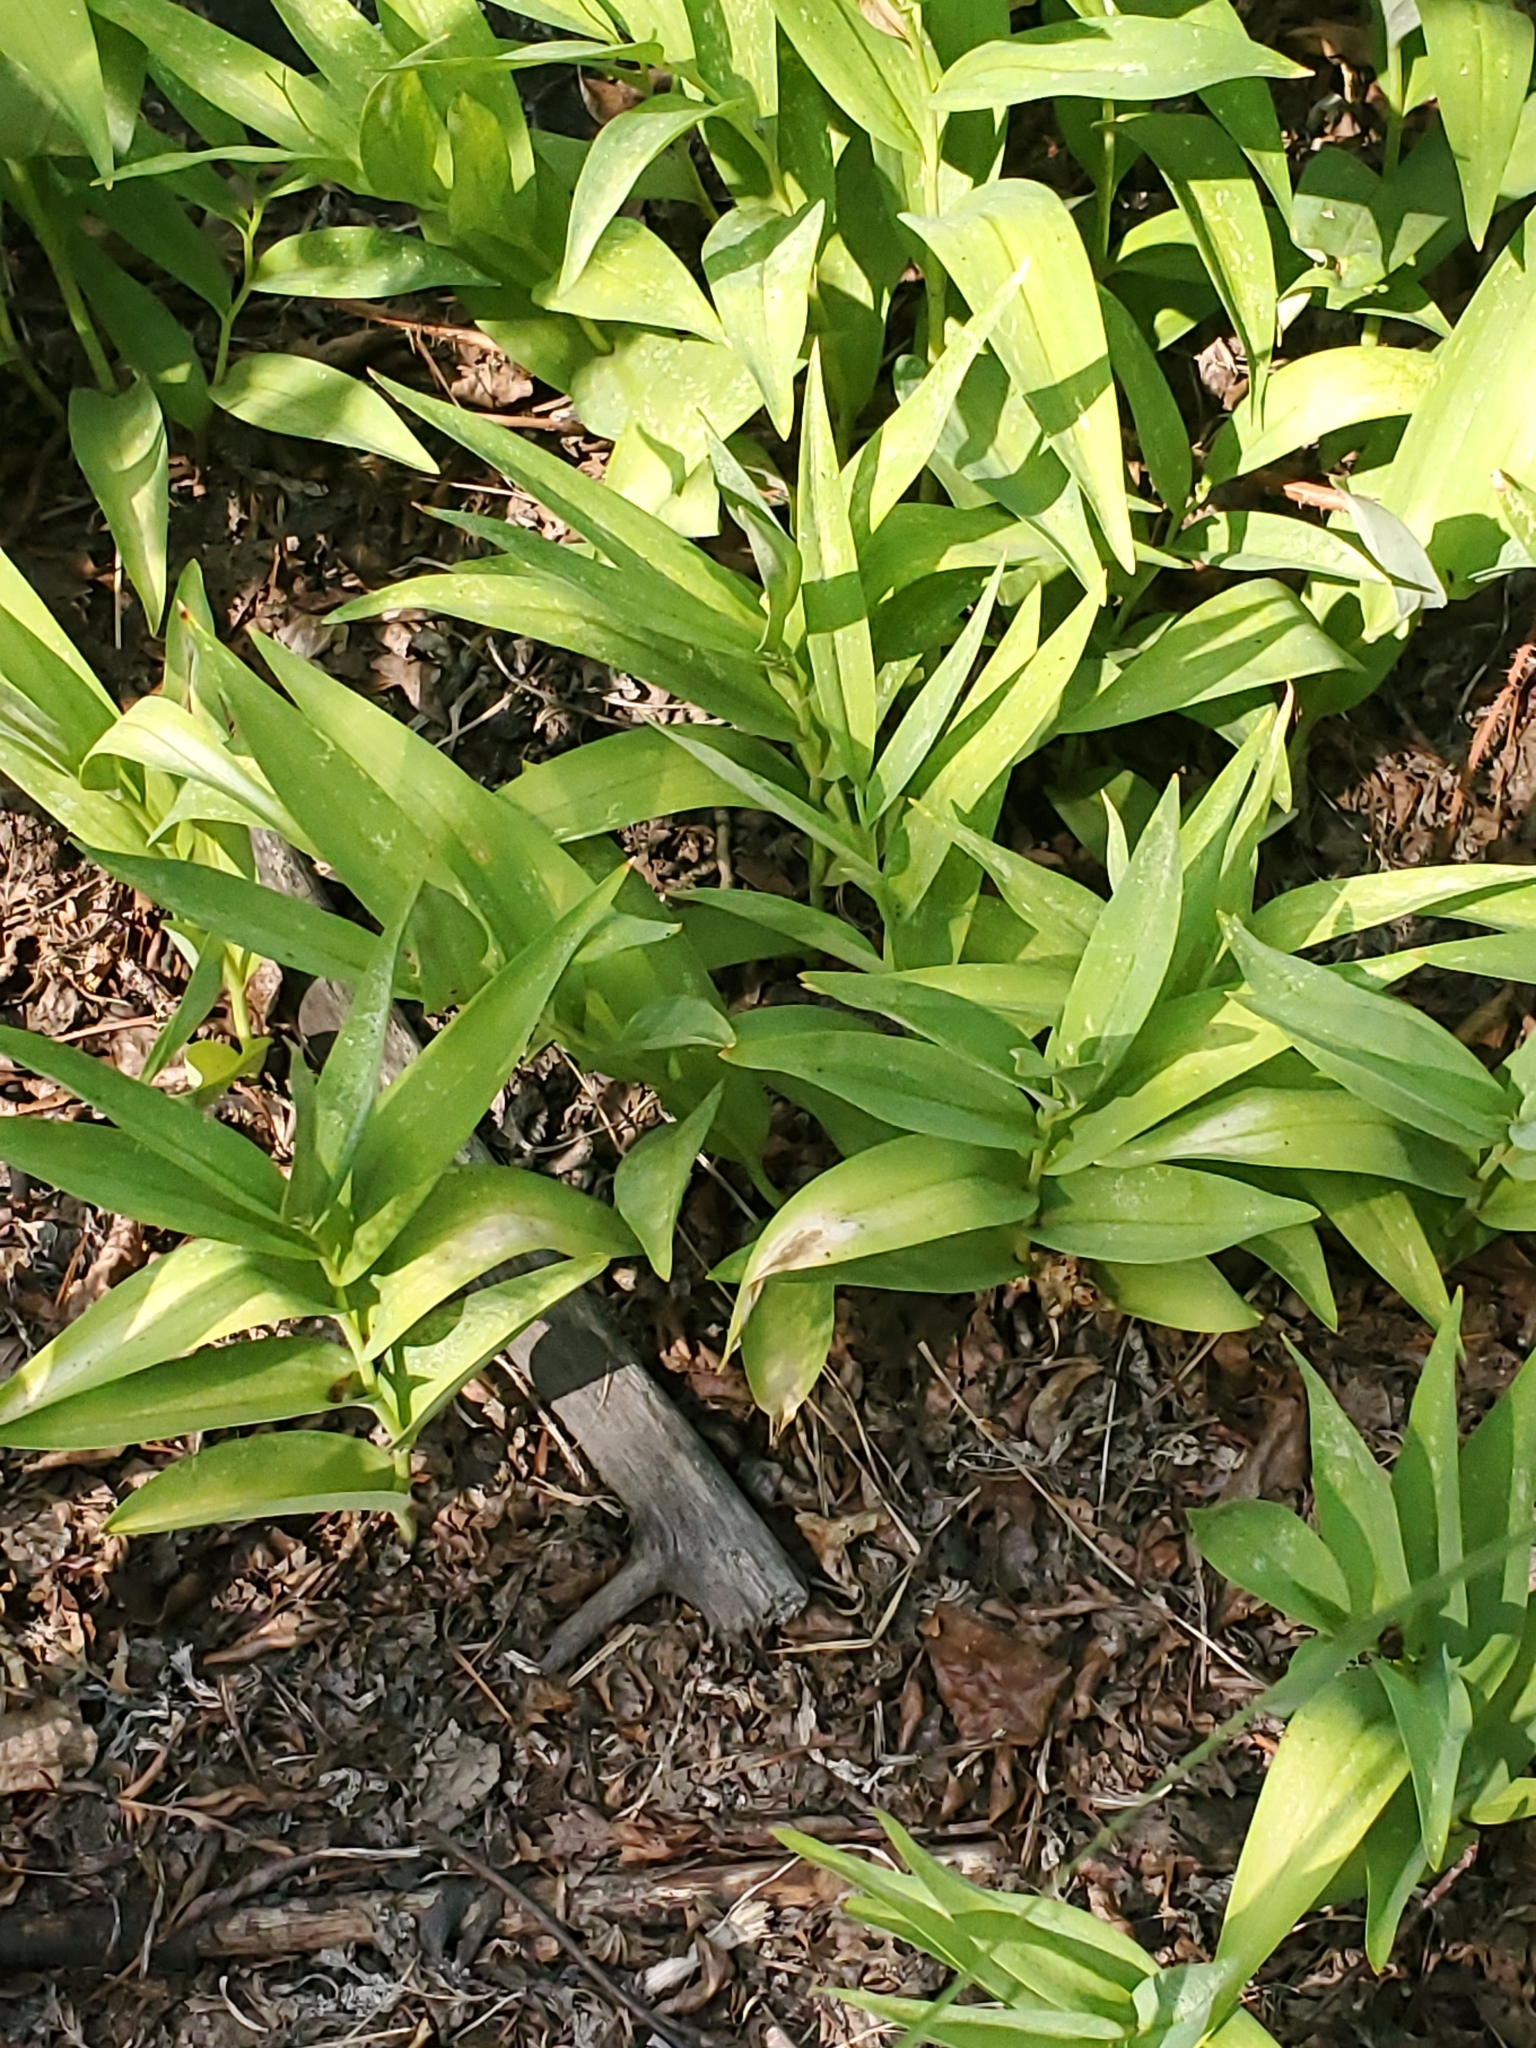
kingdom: Plantae
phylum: Tracheophyta
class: Liliopsida
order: Asparagales
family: Asparagaceae
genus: Maianthemum
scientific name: Maianthemum stellatum
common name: Little false solomon's seal
